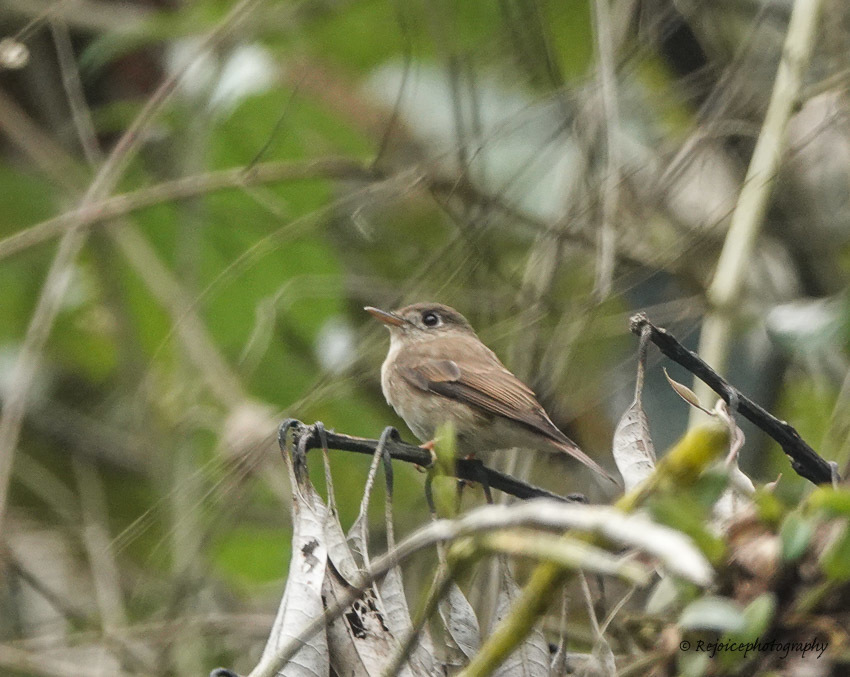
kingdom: Animalia
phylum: Chordata
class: Aves
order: Passeriformes
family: Muscicapidae
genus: Muscicapa
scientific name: Muscicapa muttui
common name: Brown-breasted flycatcher
